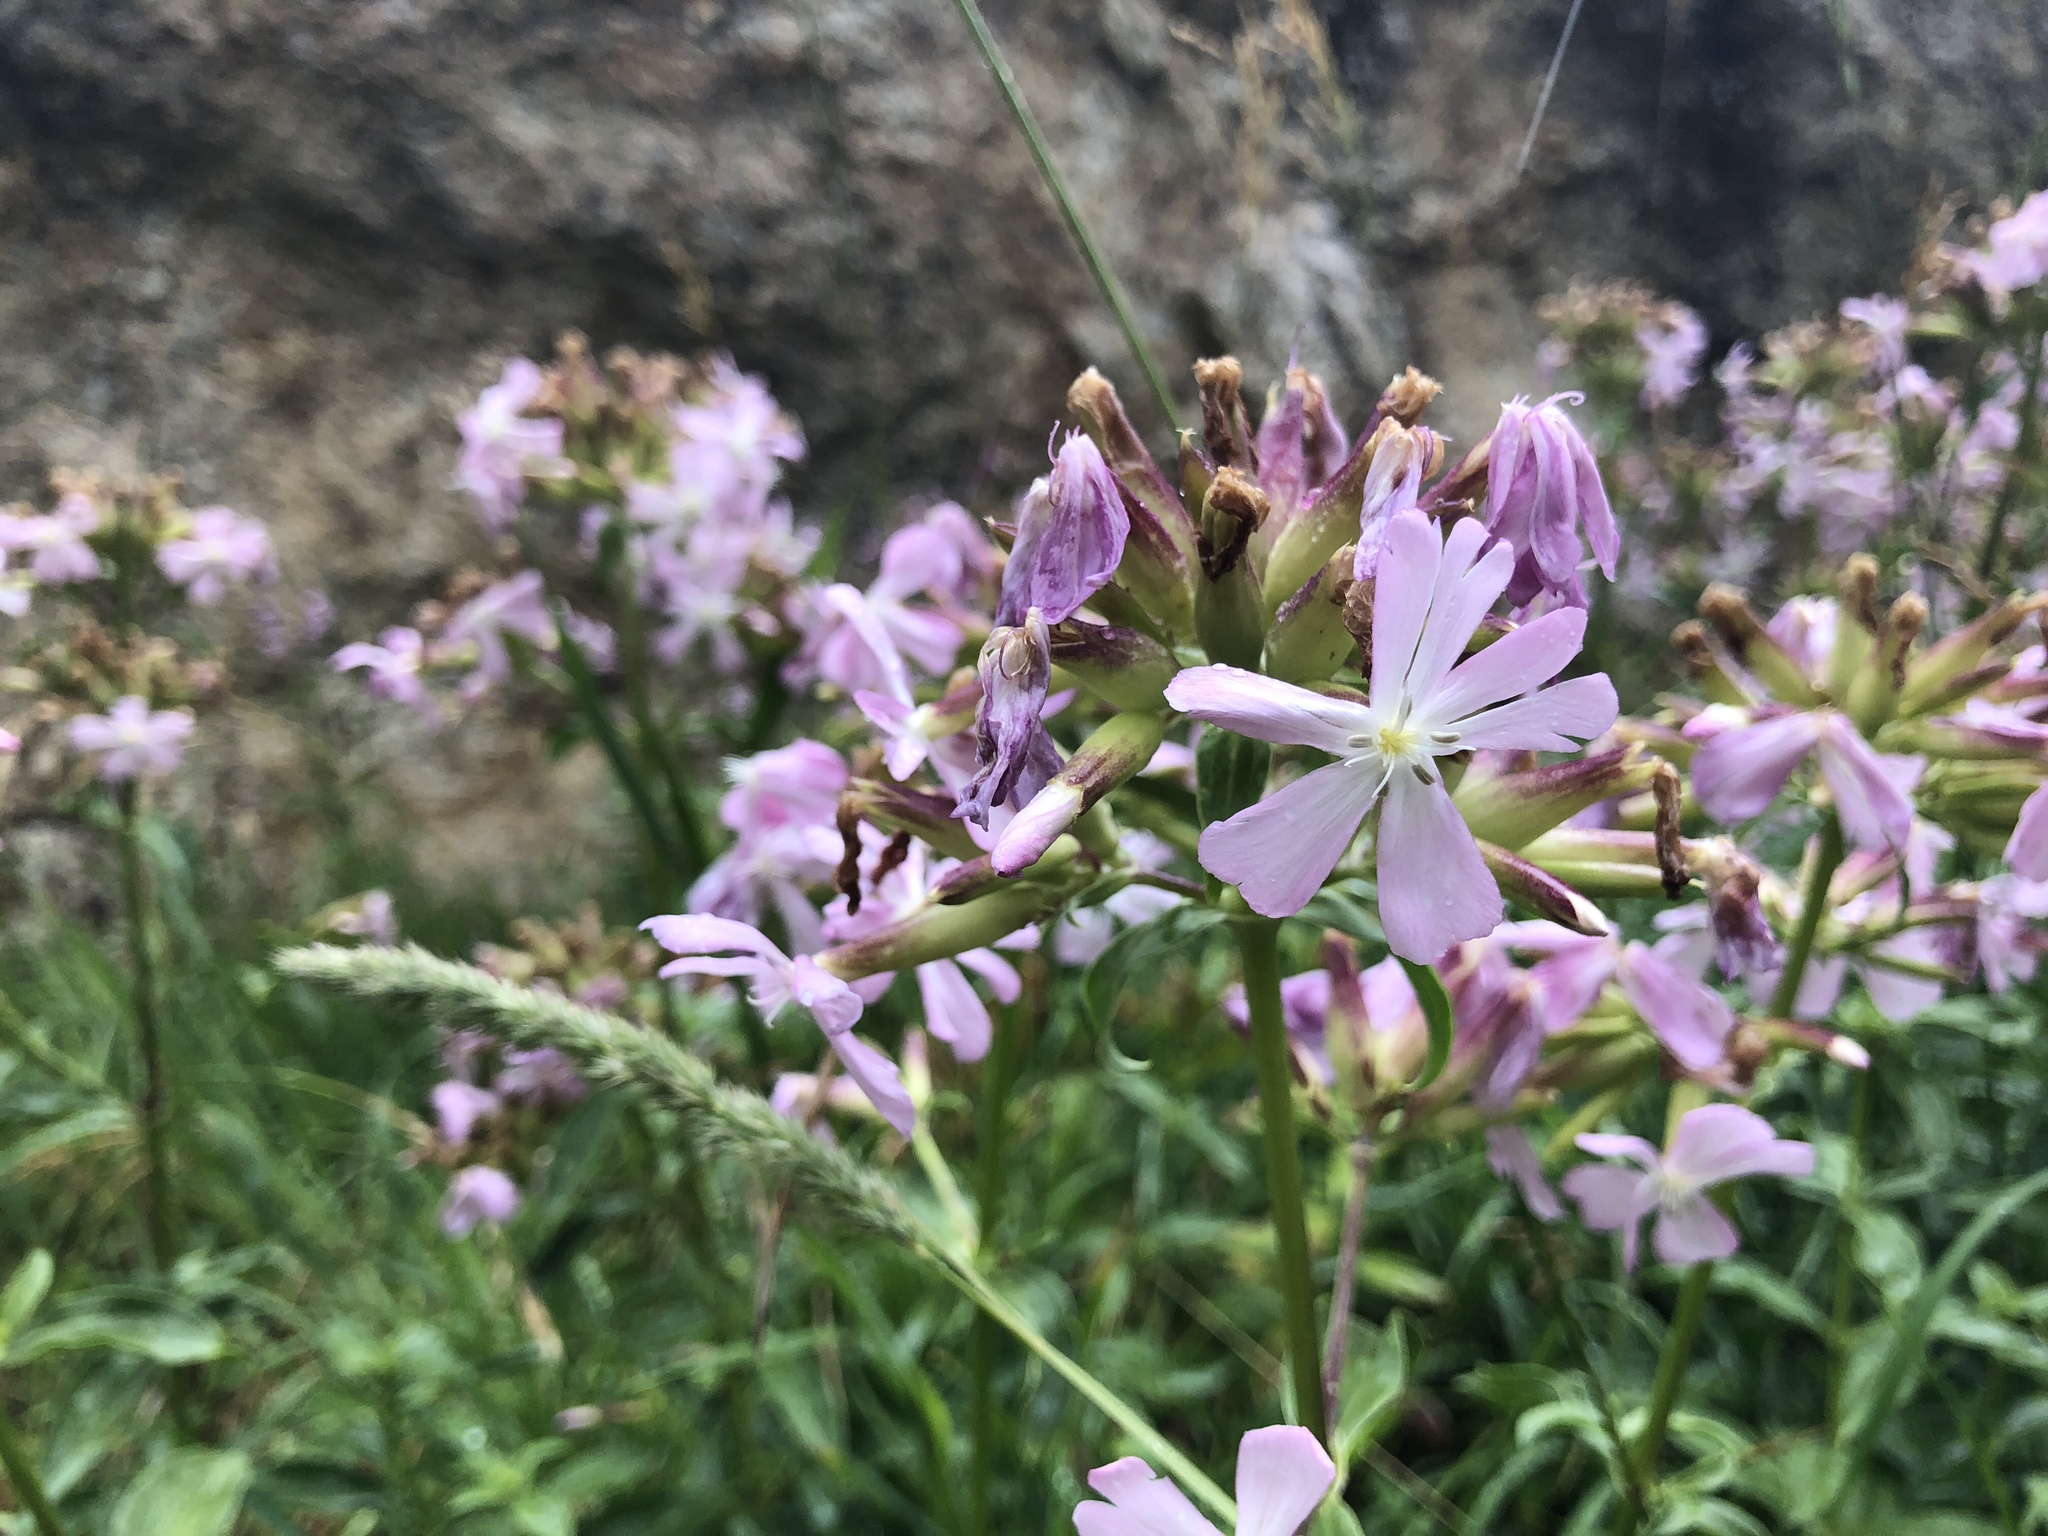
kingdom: Plantae
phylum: Tracheophyta
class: Magnoliopsida
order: Caryophyllales
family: Caryophyllaceae
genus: Saponaria
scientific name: Saponaria officinalis
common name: Soapwort
